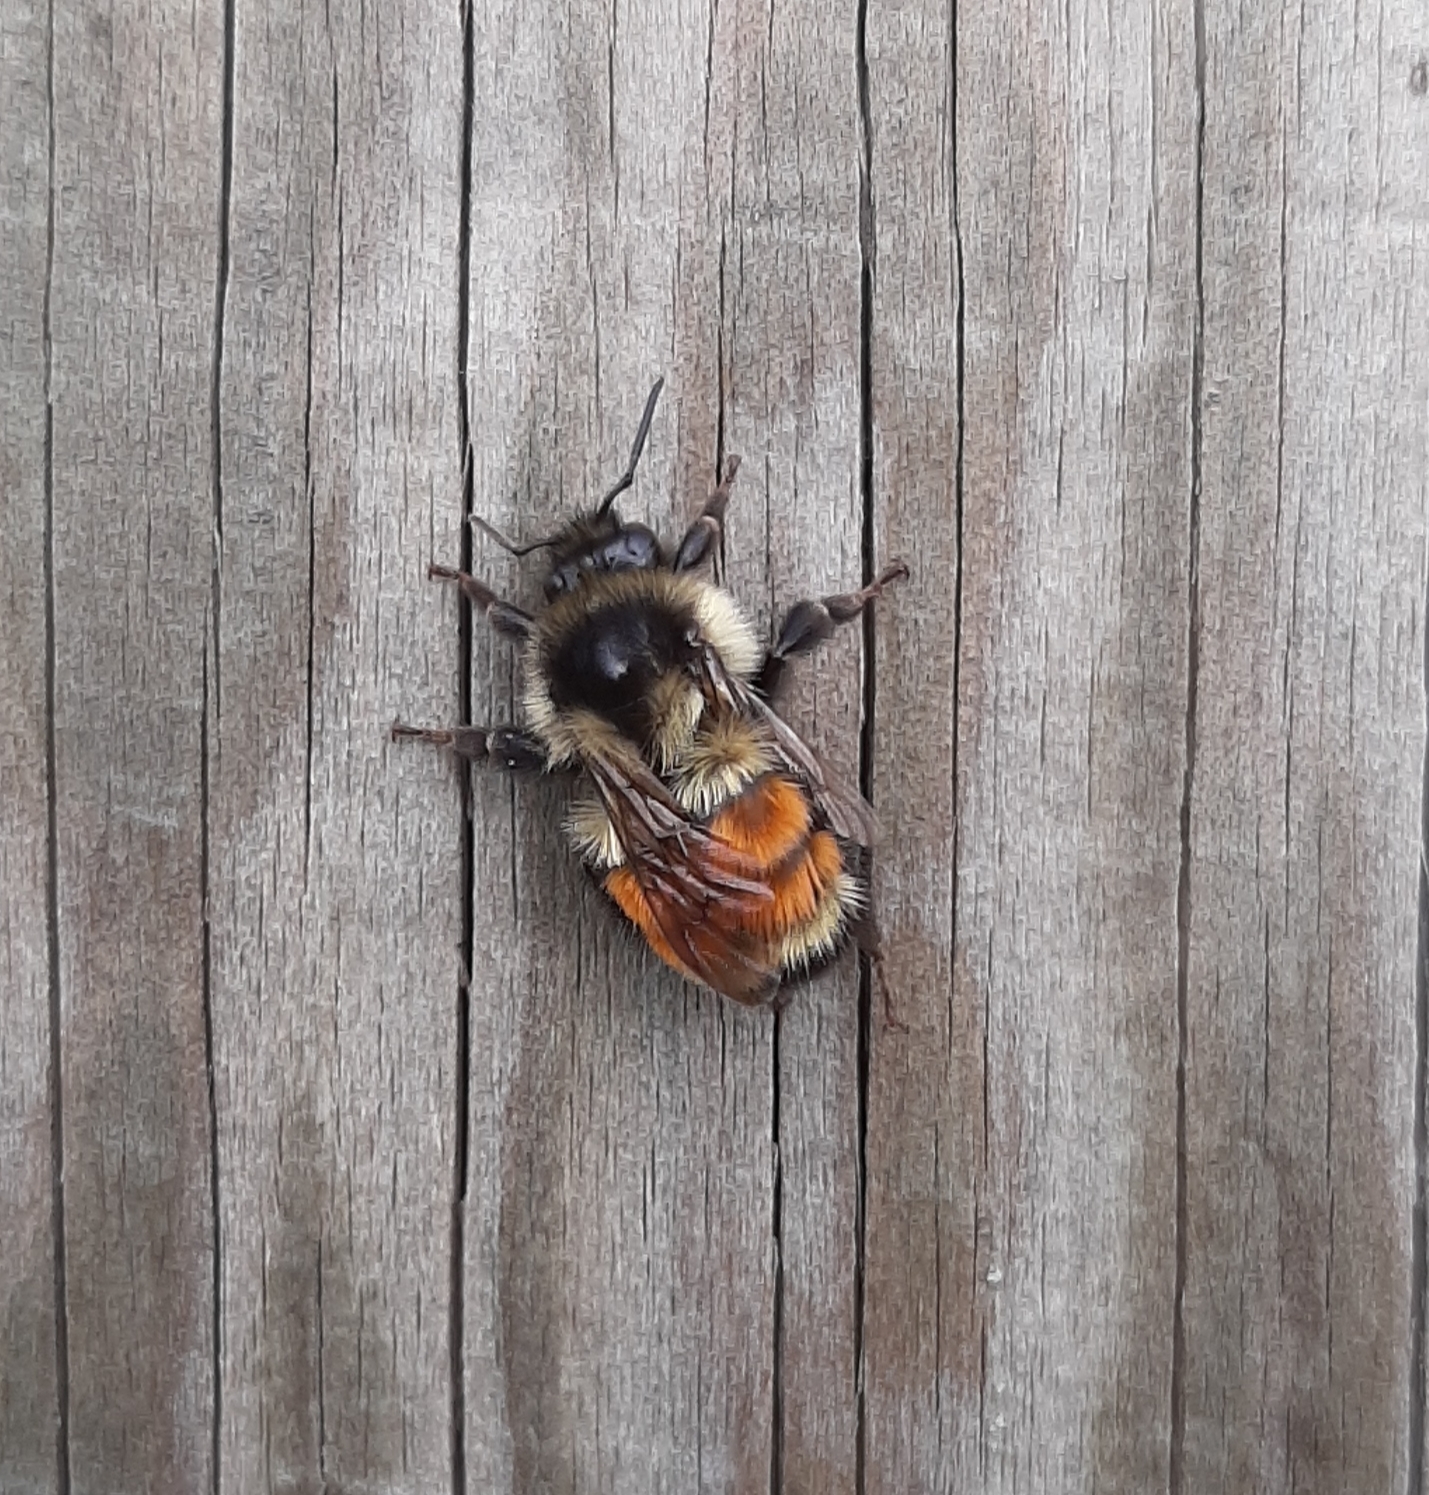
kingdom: Animalia
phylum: Arthropoda
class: Insecta
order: Hymenoptera
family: Apidae
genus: Bombus
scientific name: Bombus ternarius
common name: Tri-colored bumble bee
